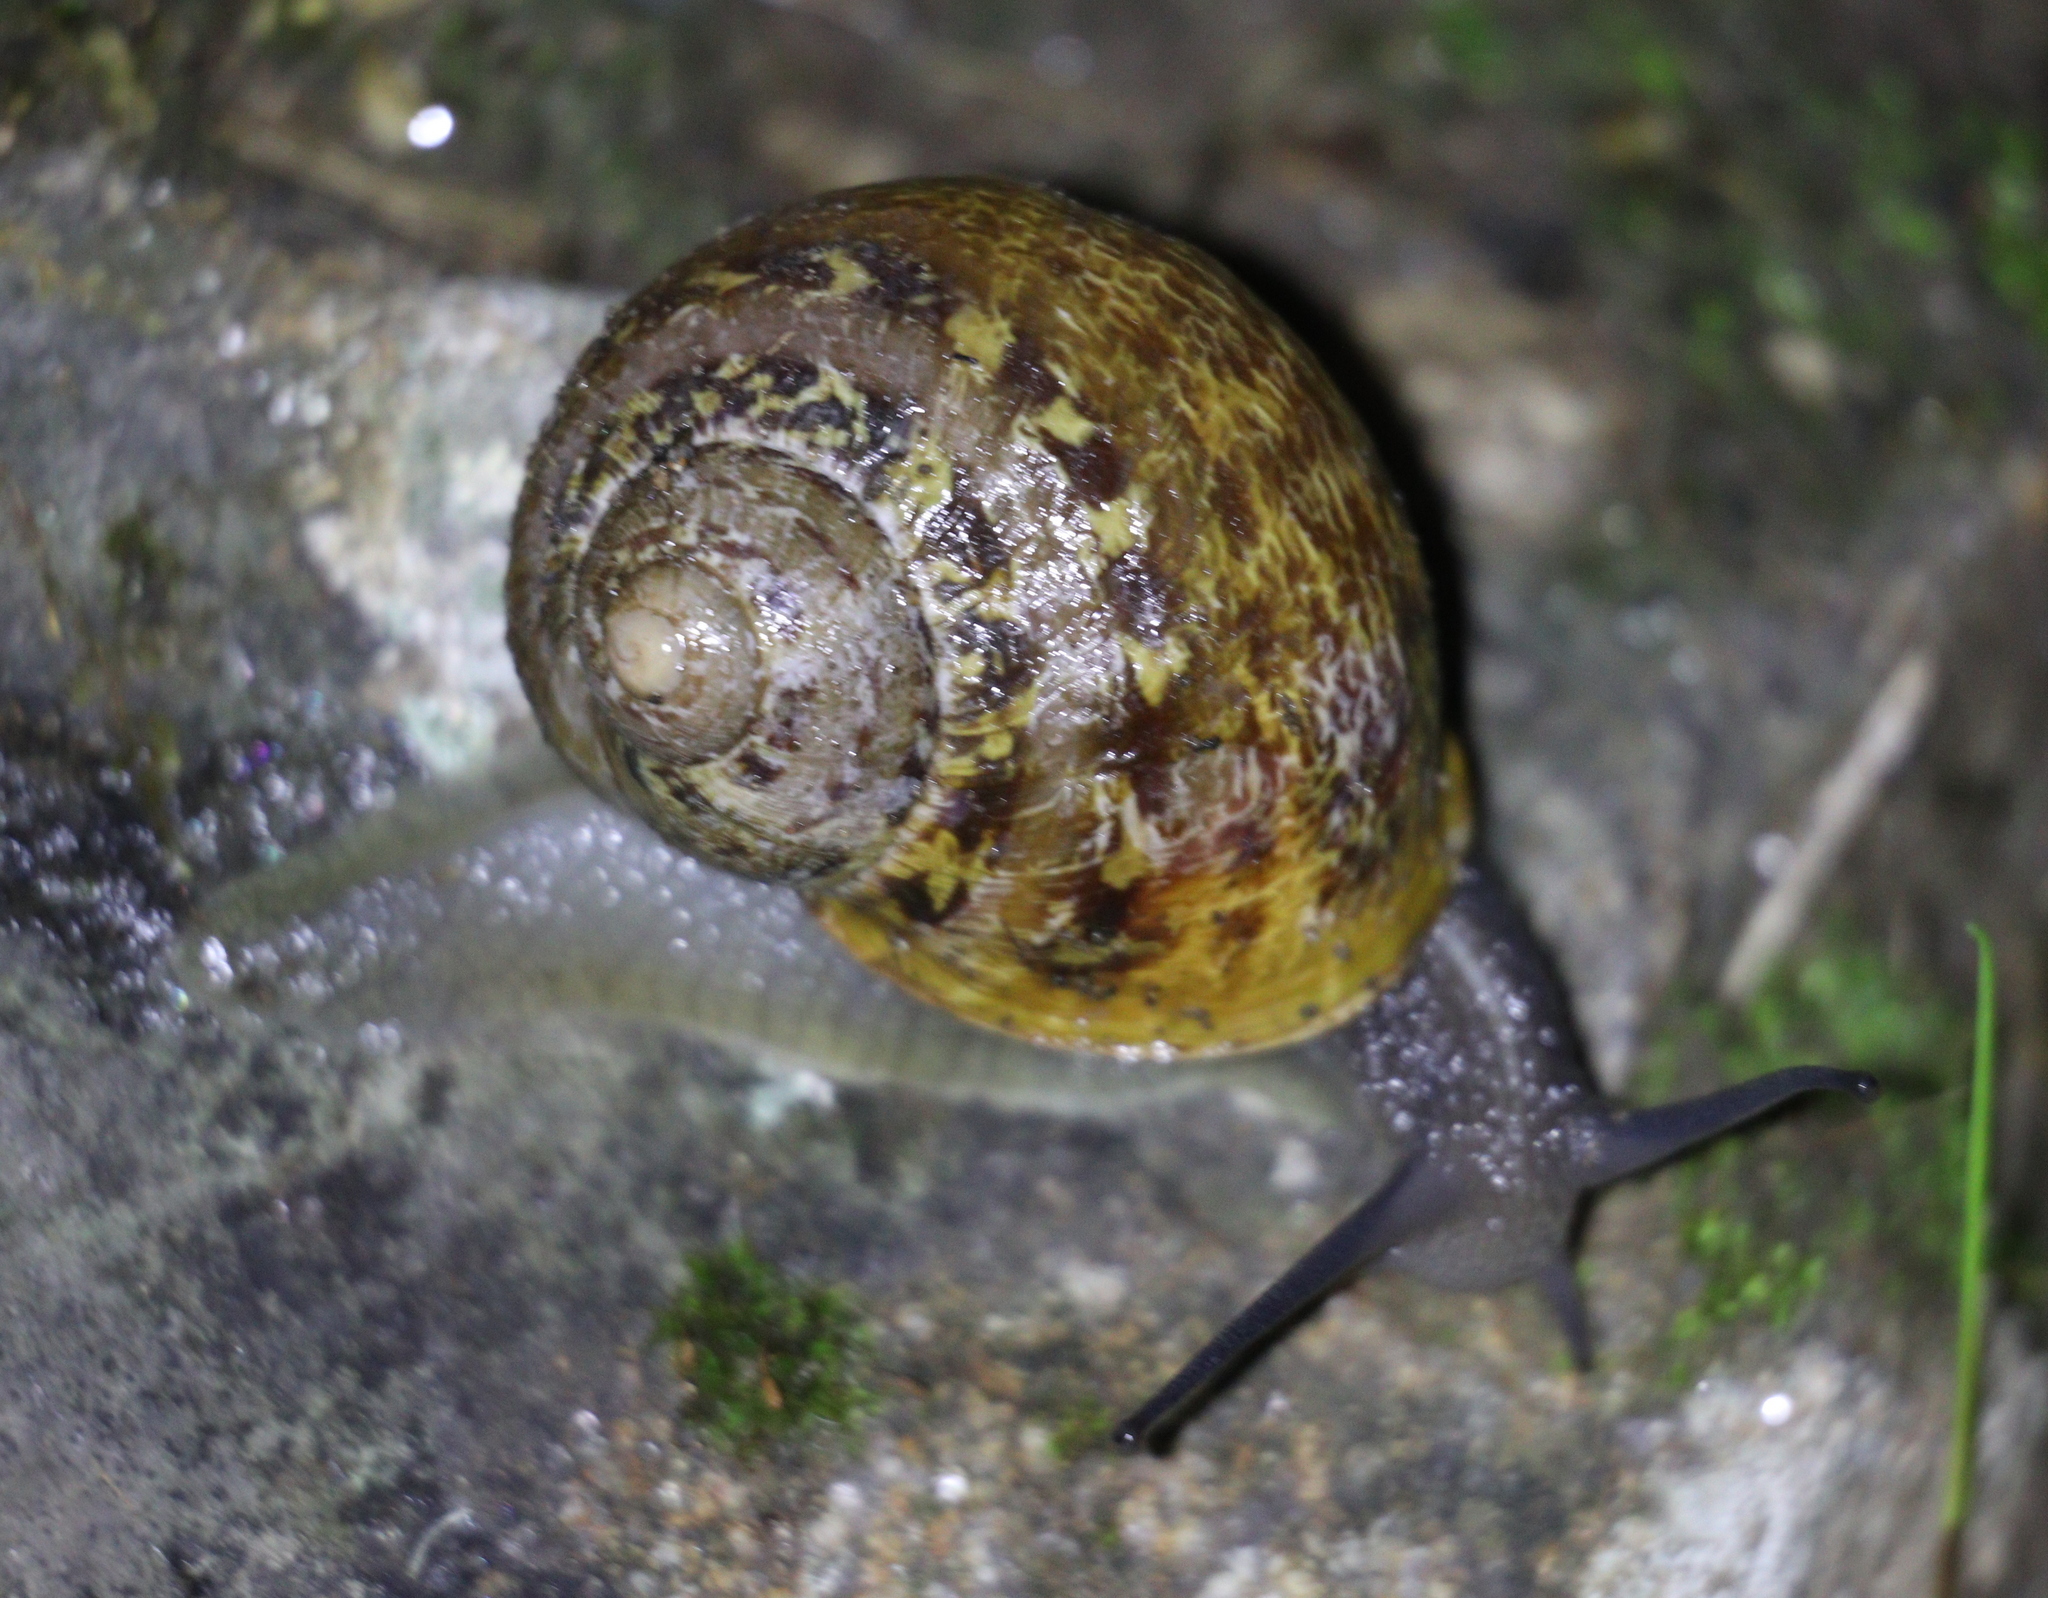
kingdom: Animalia
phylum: Mollusca
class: Gastropoda
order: Stylommatophora
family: Helicidae
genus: Cornu
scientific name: Cornu aspersum
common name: Brown garden snail
